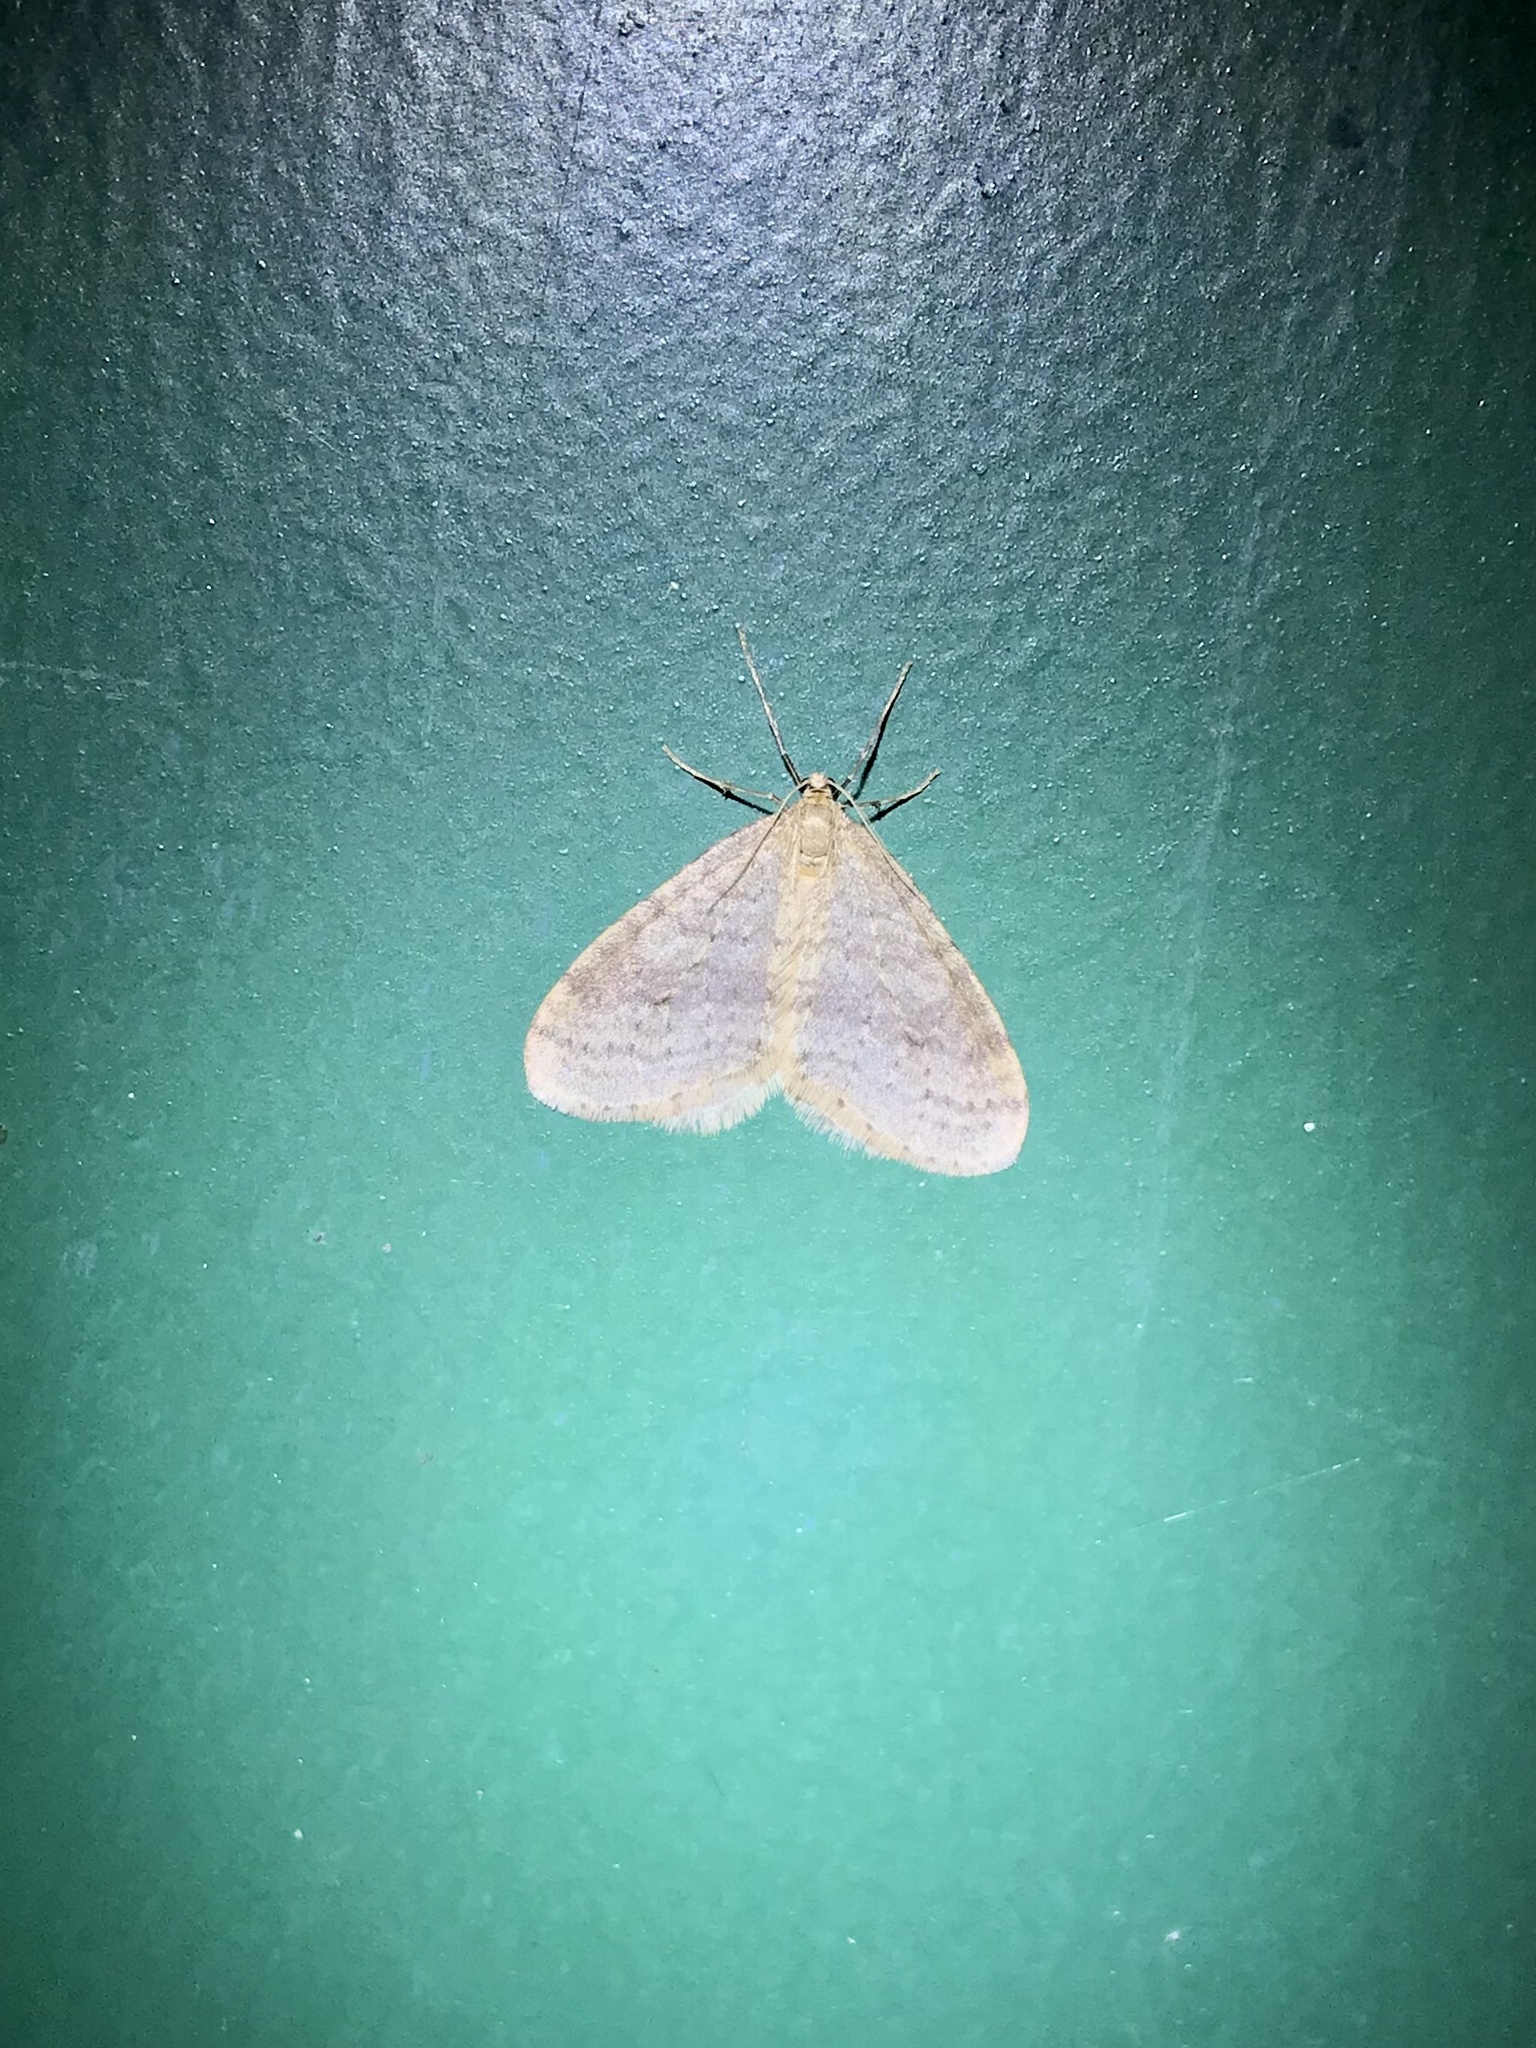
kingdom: Animalia
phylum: Arthropoda
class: Insecta
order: Lepidoptera
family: Geometridae
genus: Operophtera
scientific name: Operophtera bruceata
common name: Bruce spanworm
